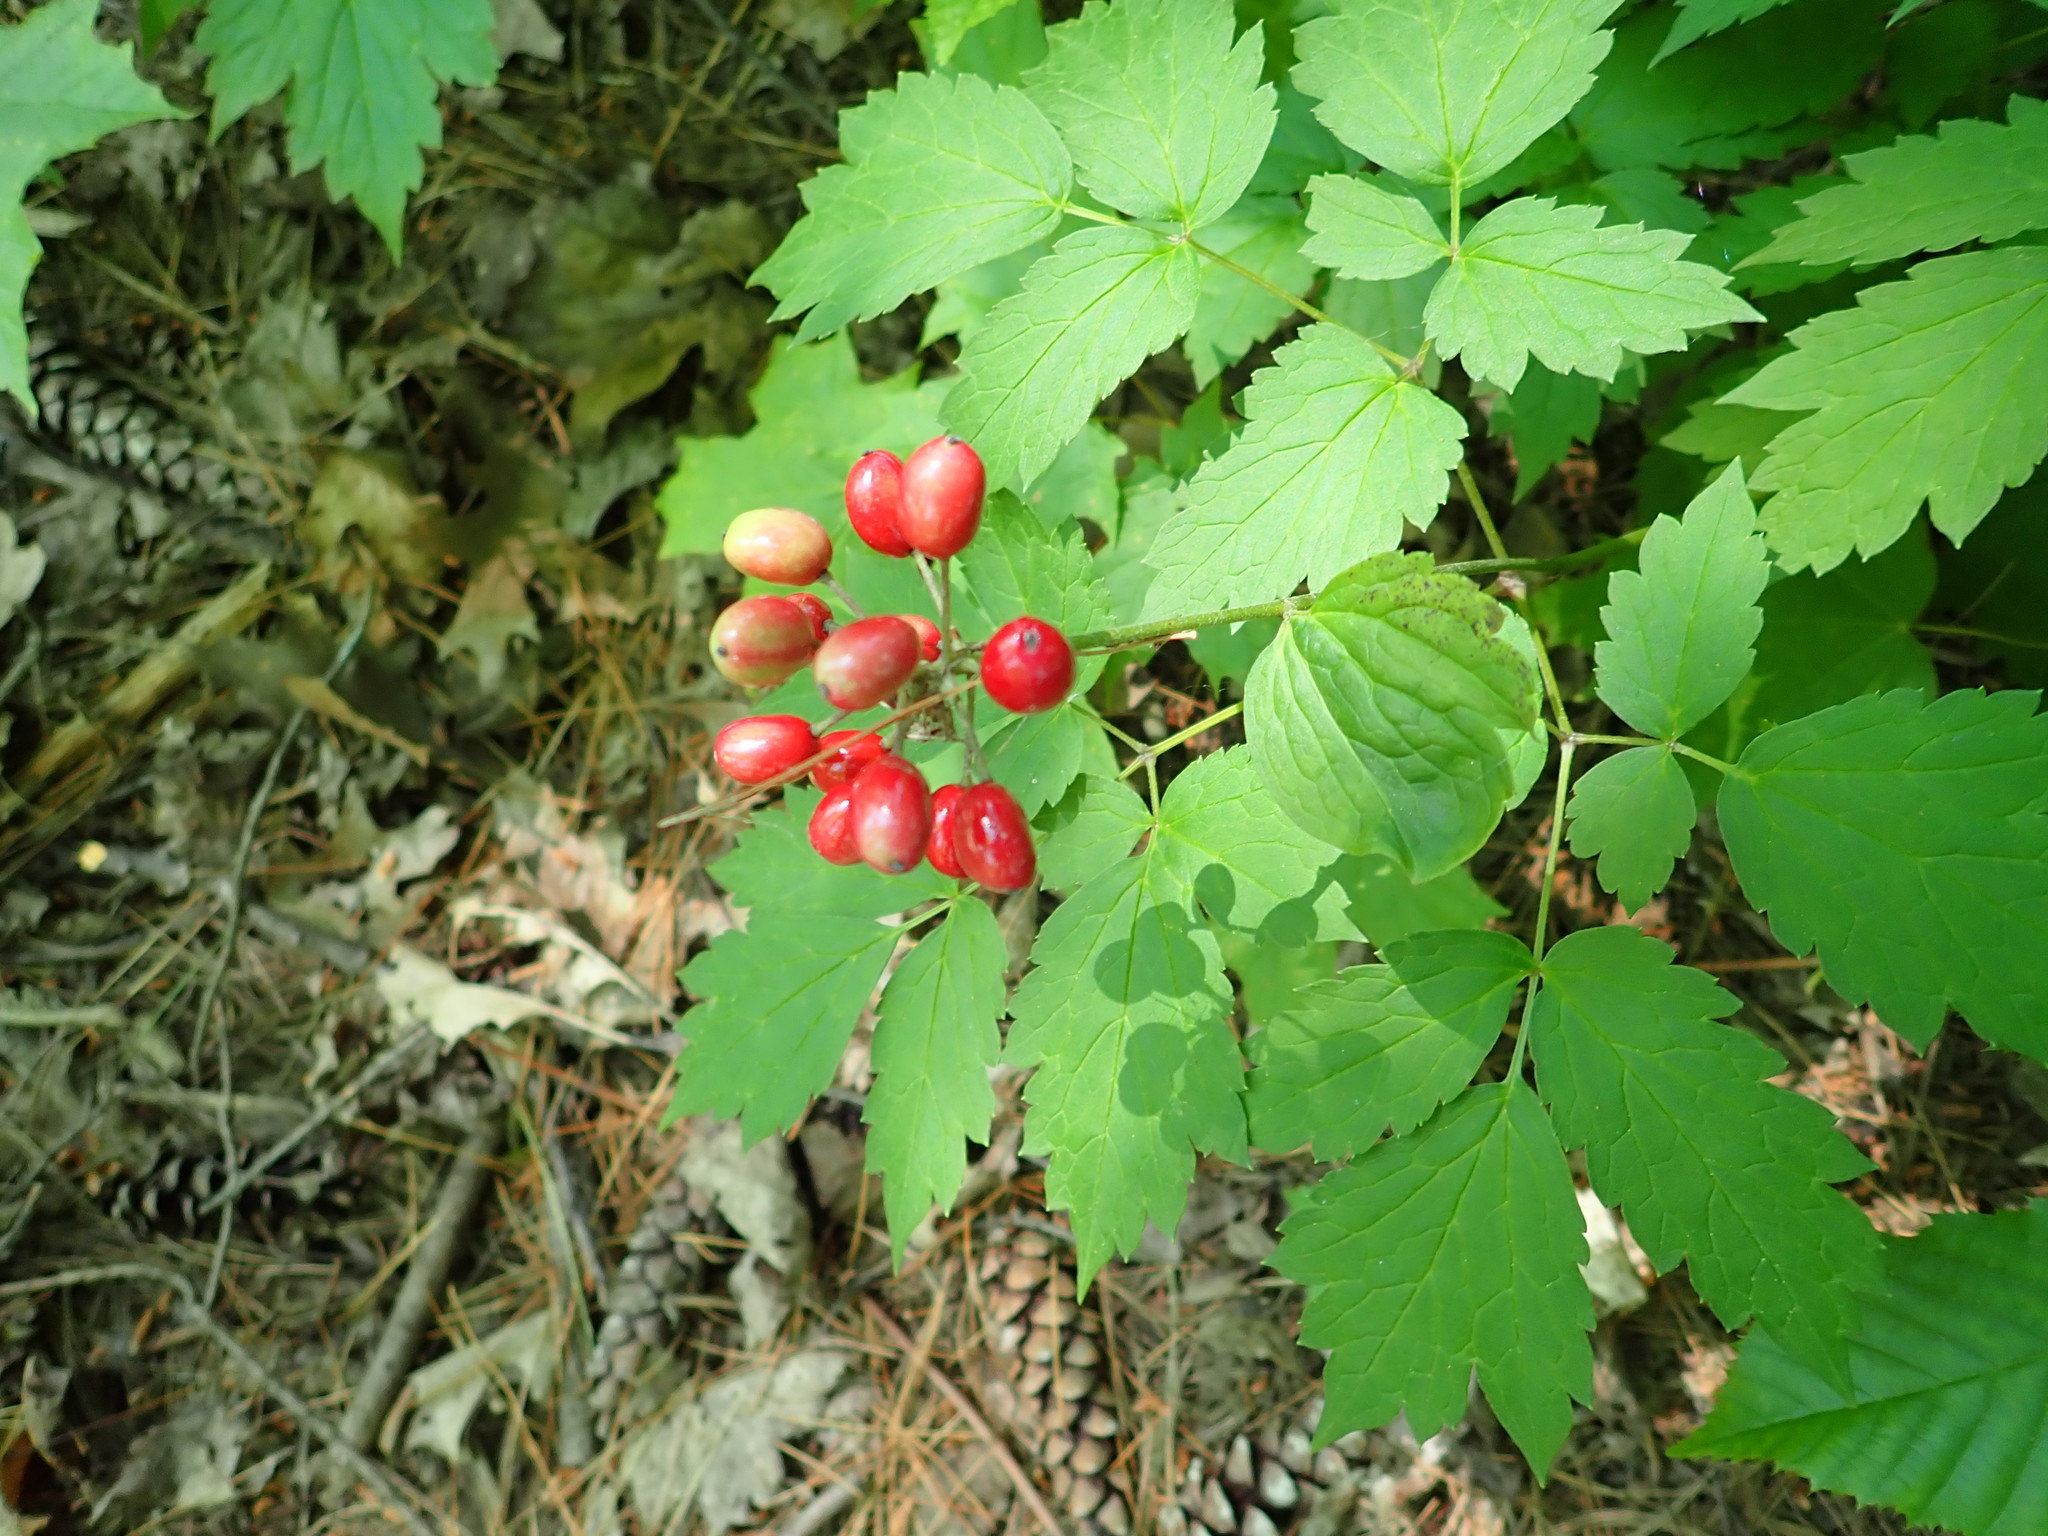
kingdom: Plantae
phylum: Tracheophyta
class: Magnoliopsida
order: Ranunculales
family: Ranunculaceae
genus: Actaea
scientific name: Actaea rubra
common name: Red baneberry
